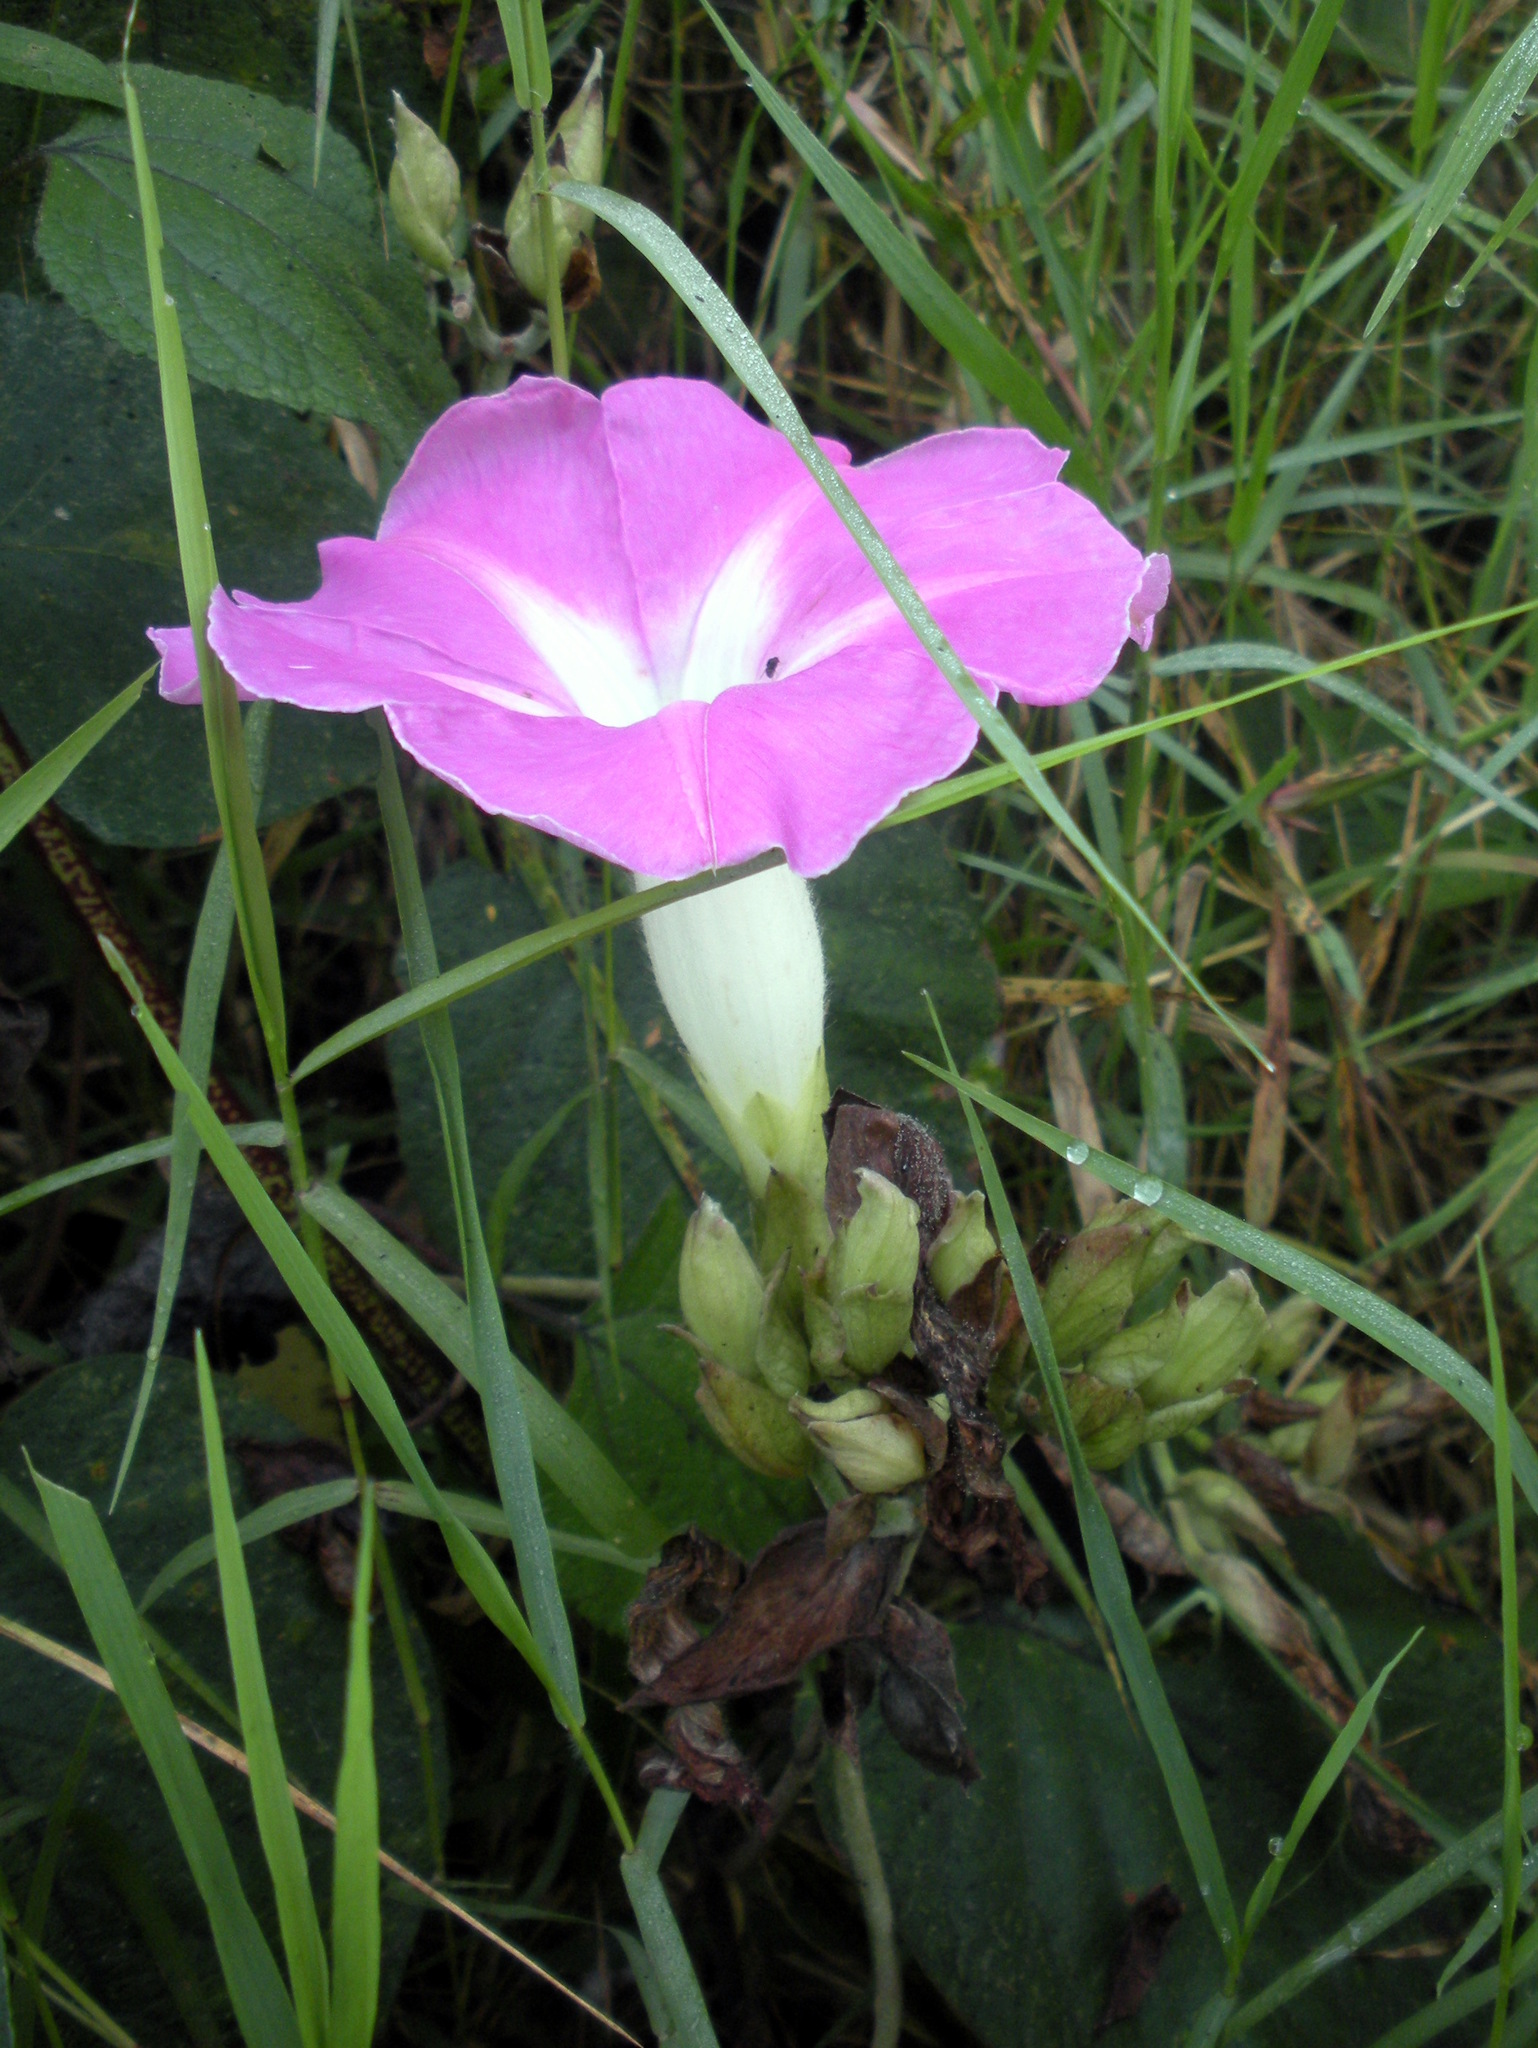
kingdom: Plantae
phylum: Tracheophyta
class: Magnoliopsida
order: Solanales
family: Convolvulaceae
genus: Ipomoea
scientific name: Ipomoea mairetii
